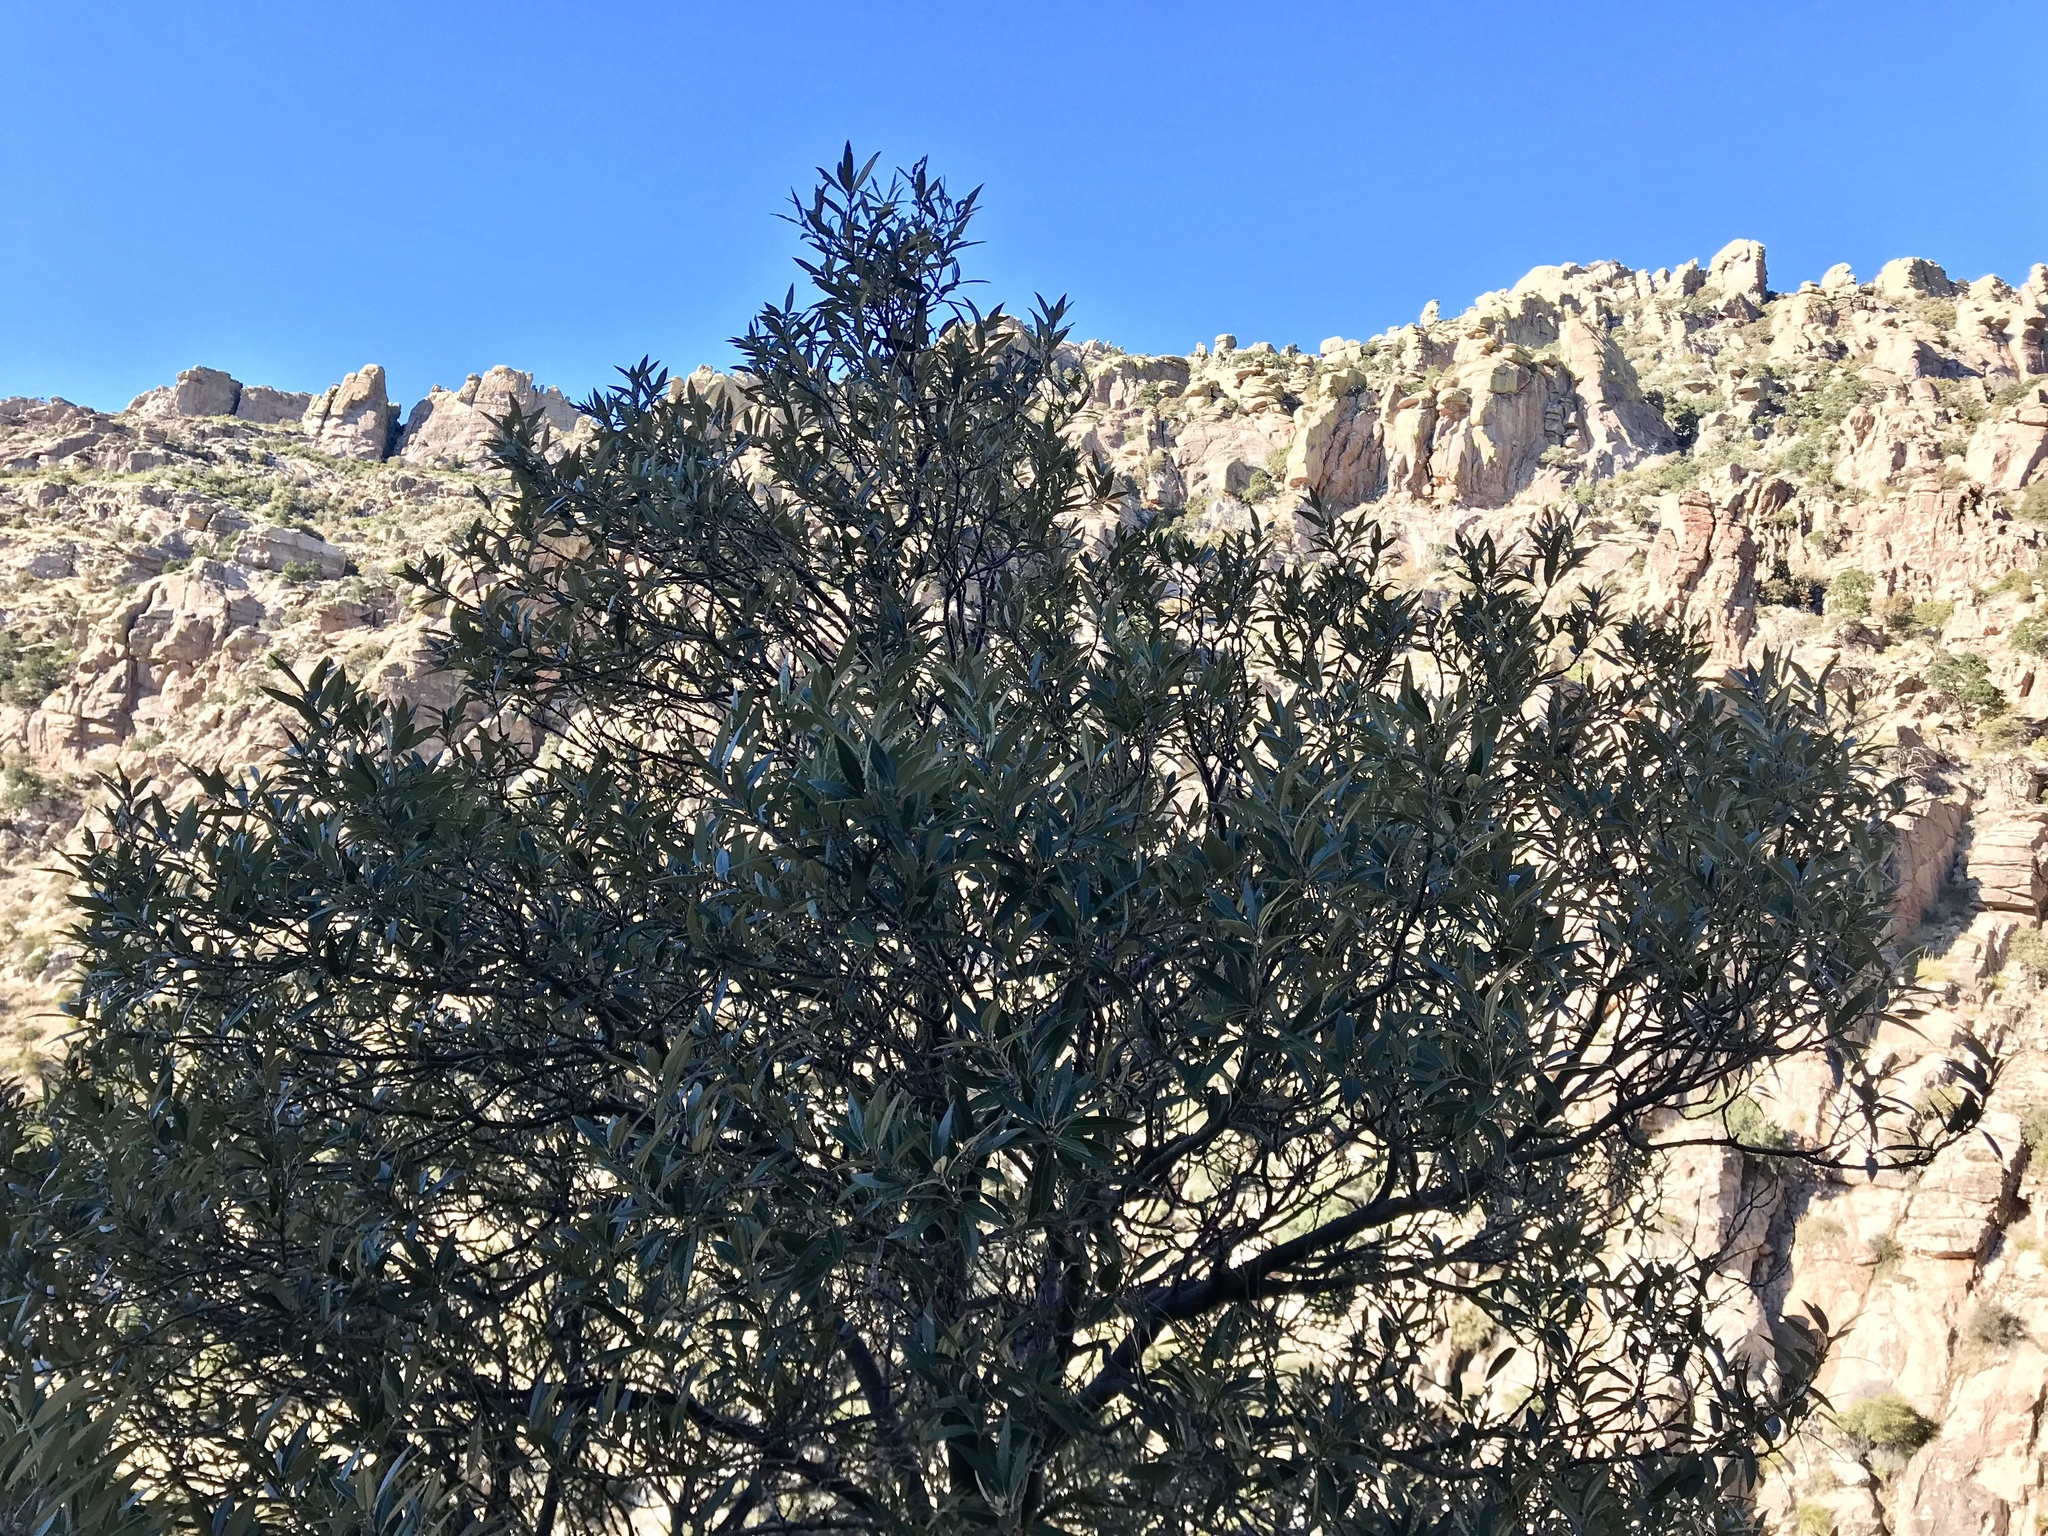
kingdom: Plantae
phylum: Tracheophyta
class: Magnoliopsida
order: Fagales
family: Fagaceae
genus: Quercus
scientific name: Quercus hypoleucoides
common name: Silverleaf oak
